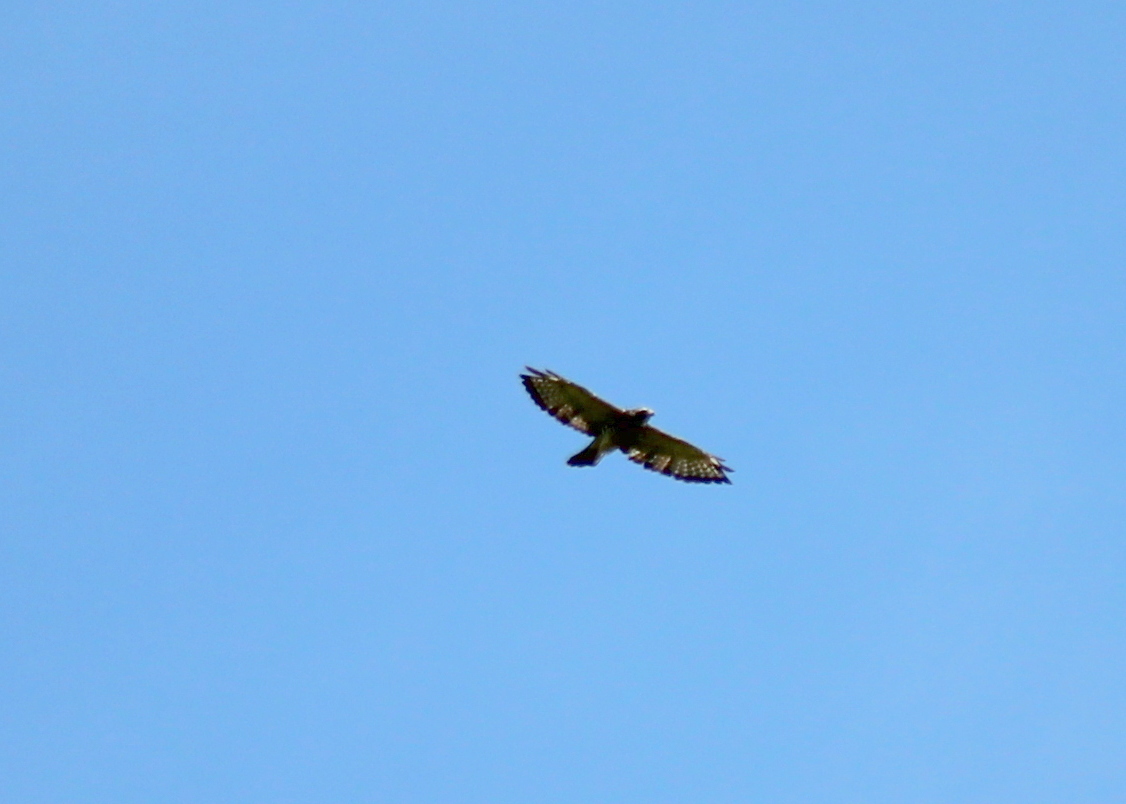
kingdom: Animalia
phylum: Chordata
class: Aves
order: Accipitriformes
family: Accipitridae
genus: Buteo
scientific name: Buteo platypterus
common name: Broad-winged hawk
